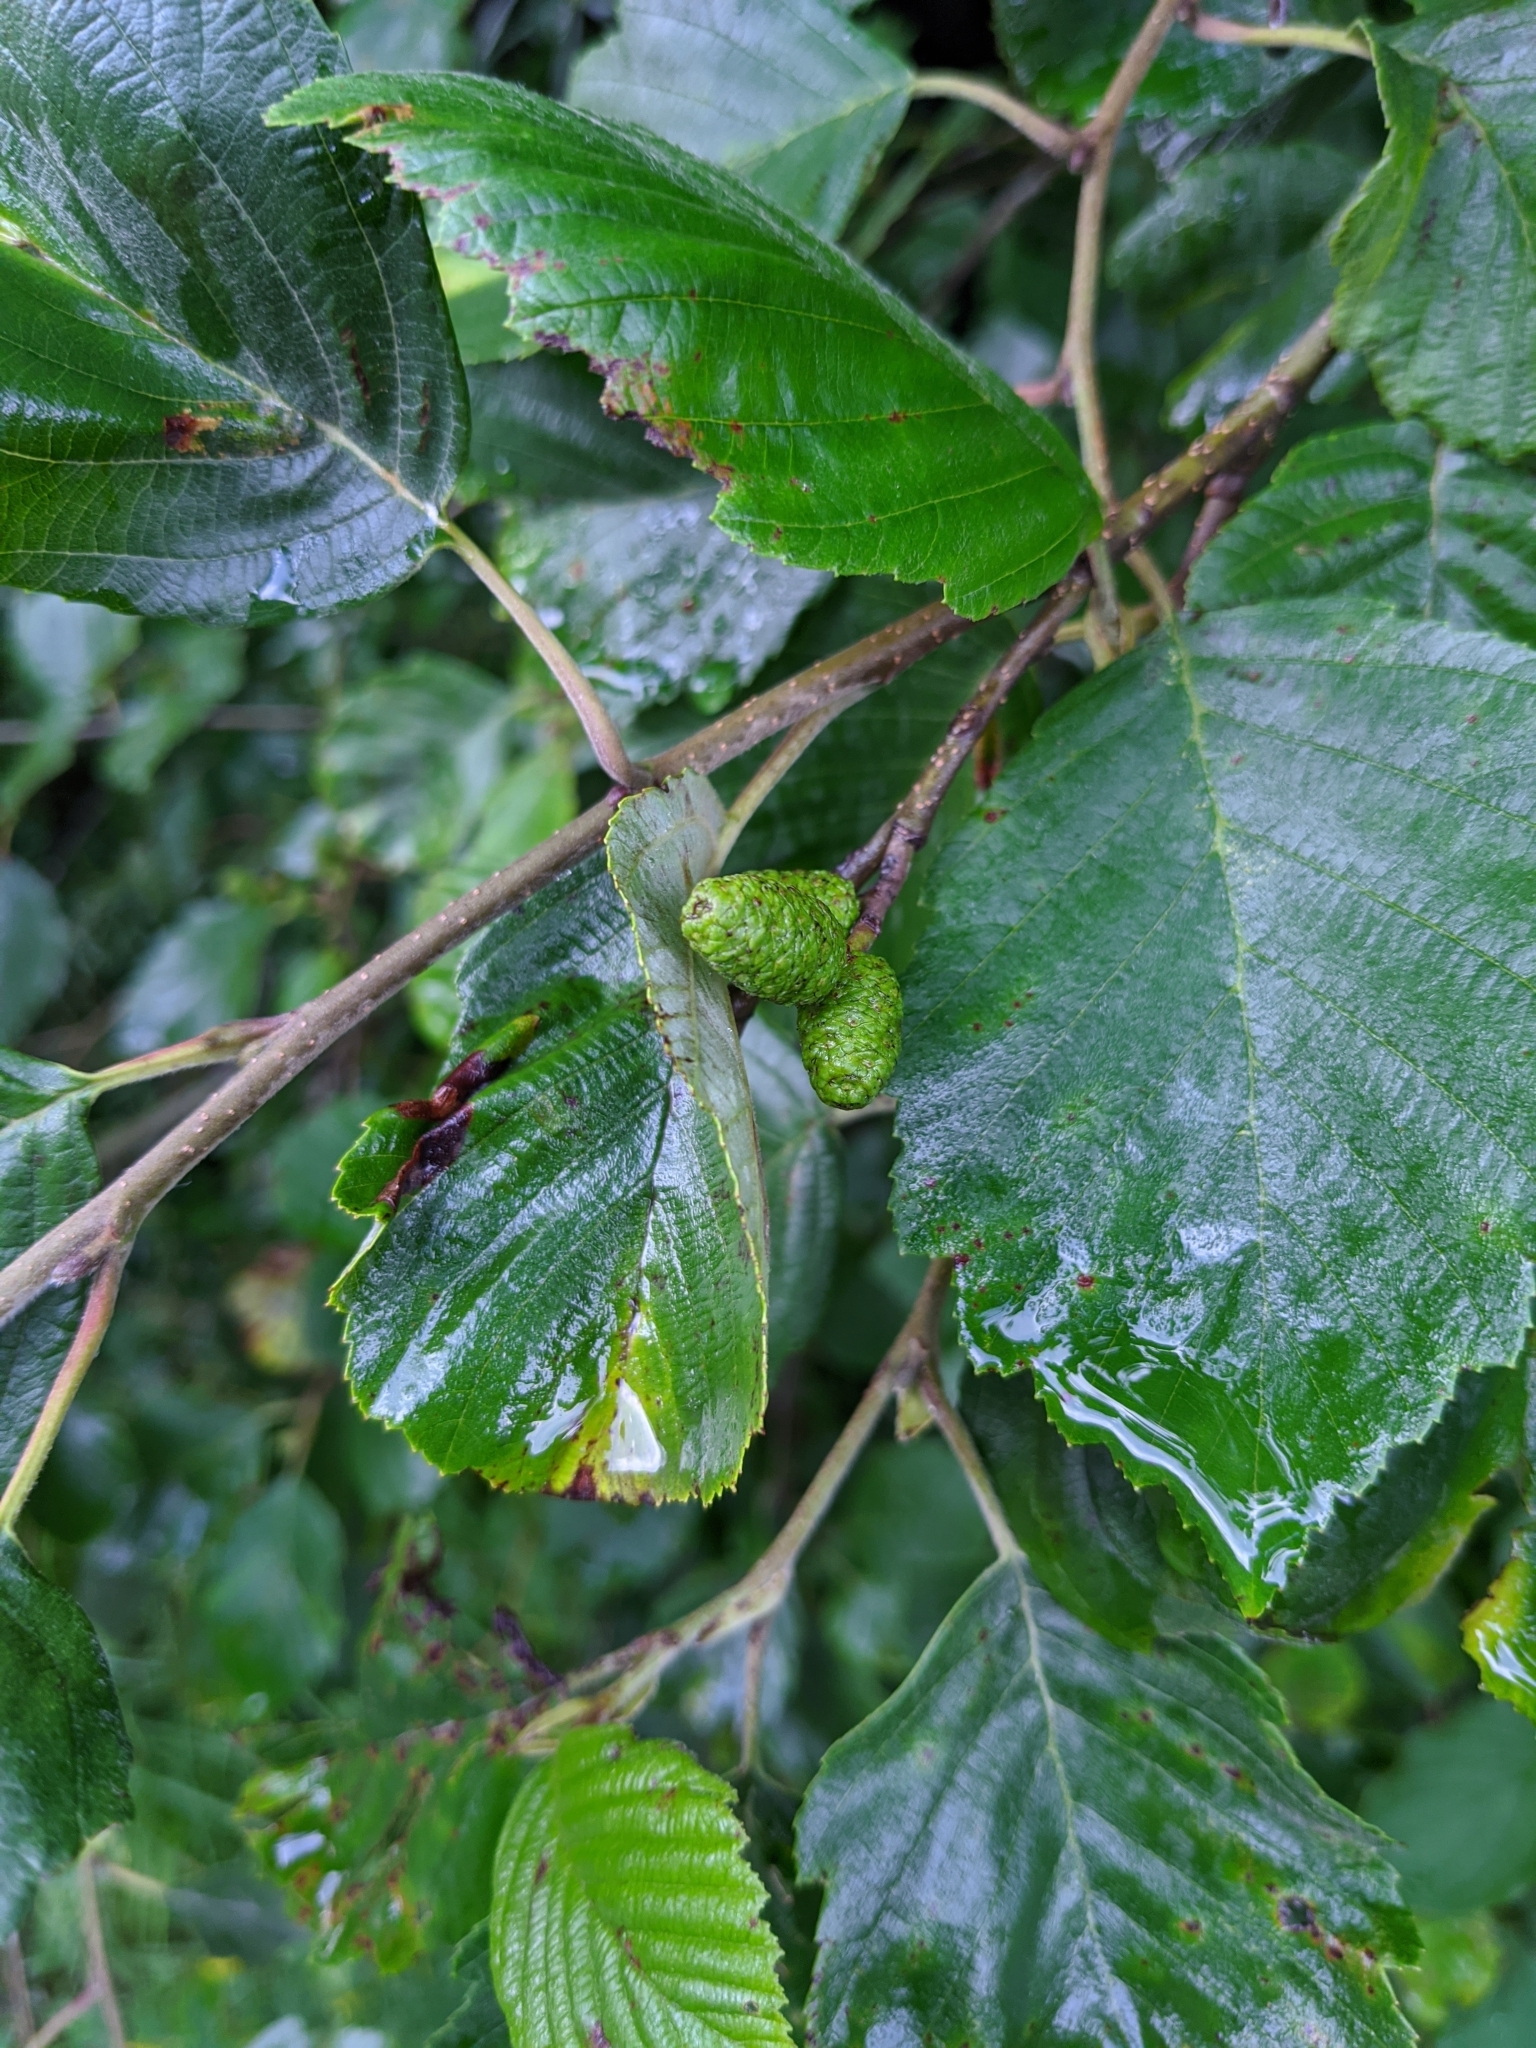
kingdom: Plantae
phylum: Tracheophyta
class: Magnoliopsida
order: Fagales
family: Betulaceae
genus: Alnus
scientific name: Alnus incana
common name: Grey alder
